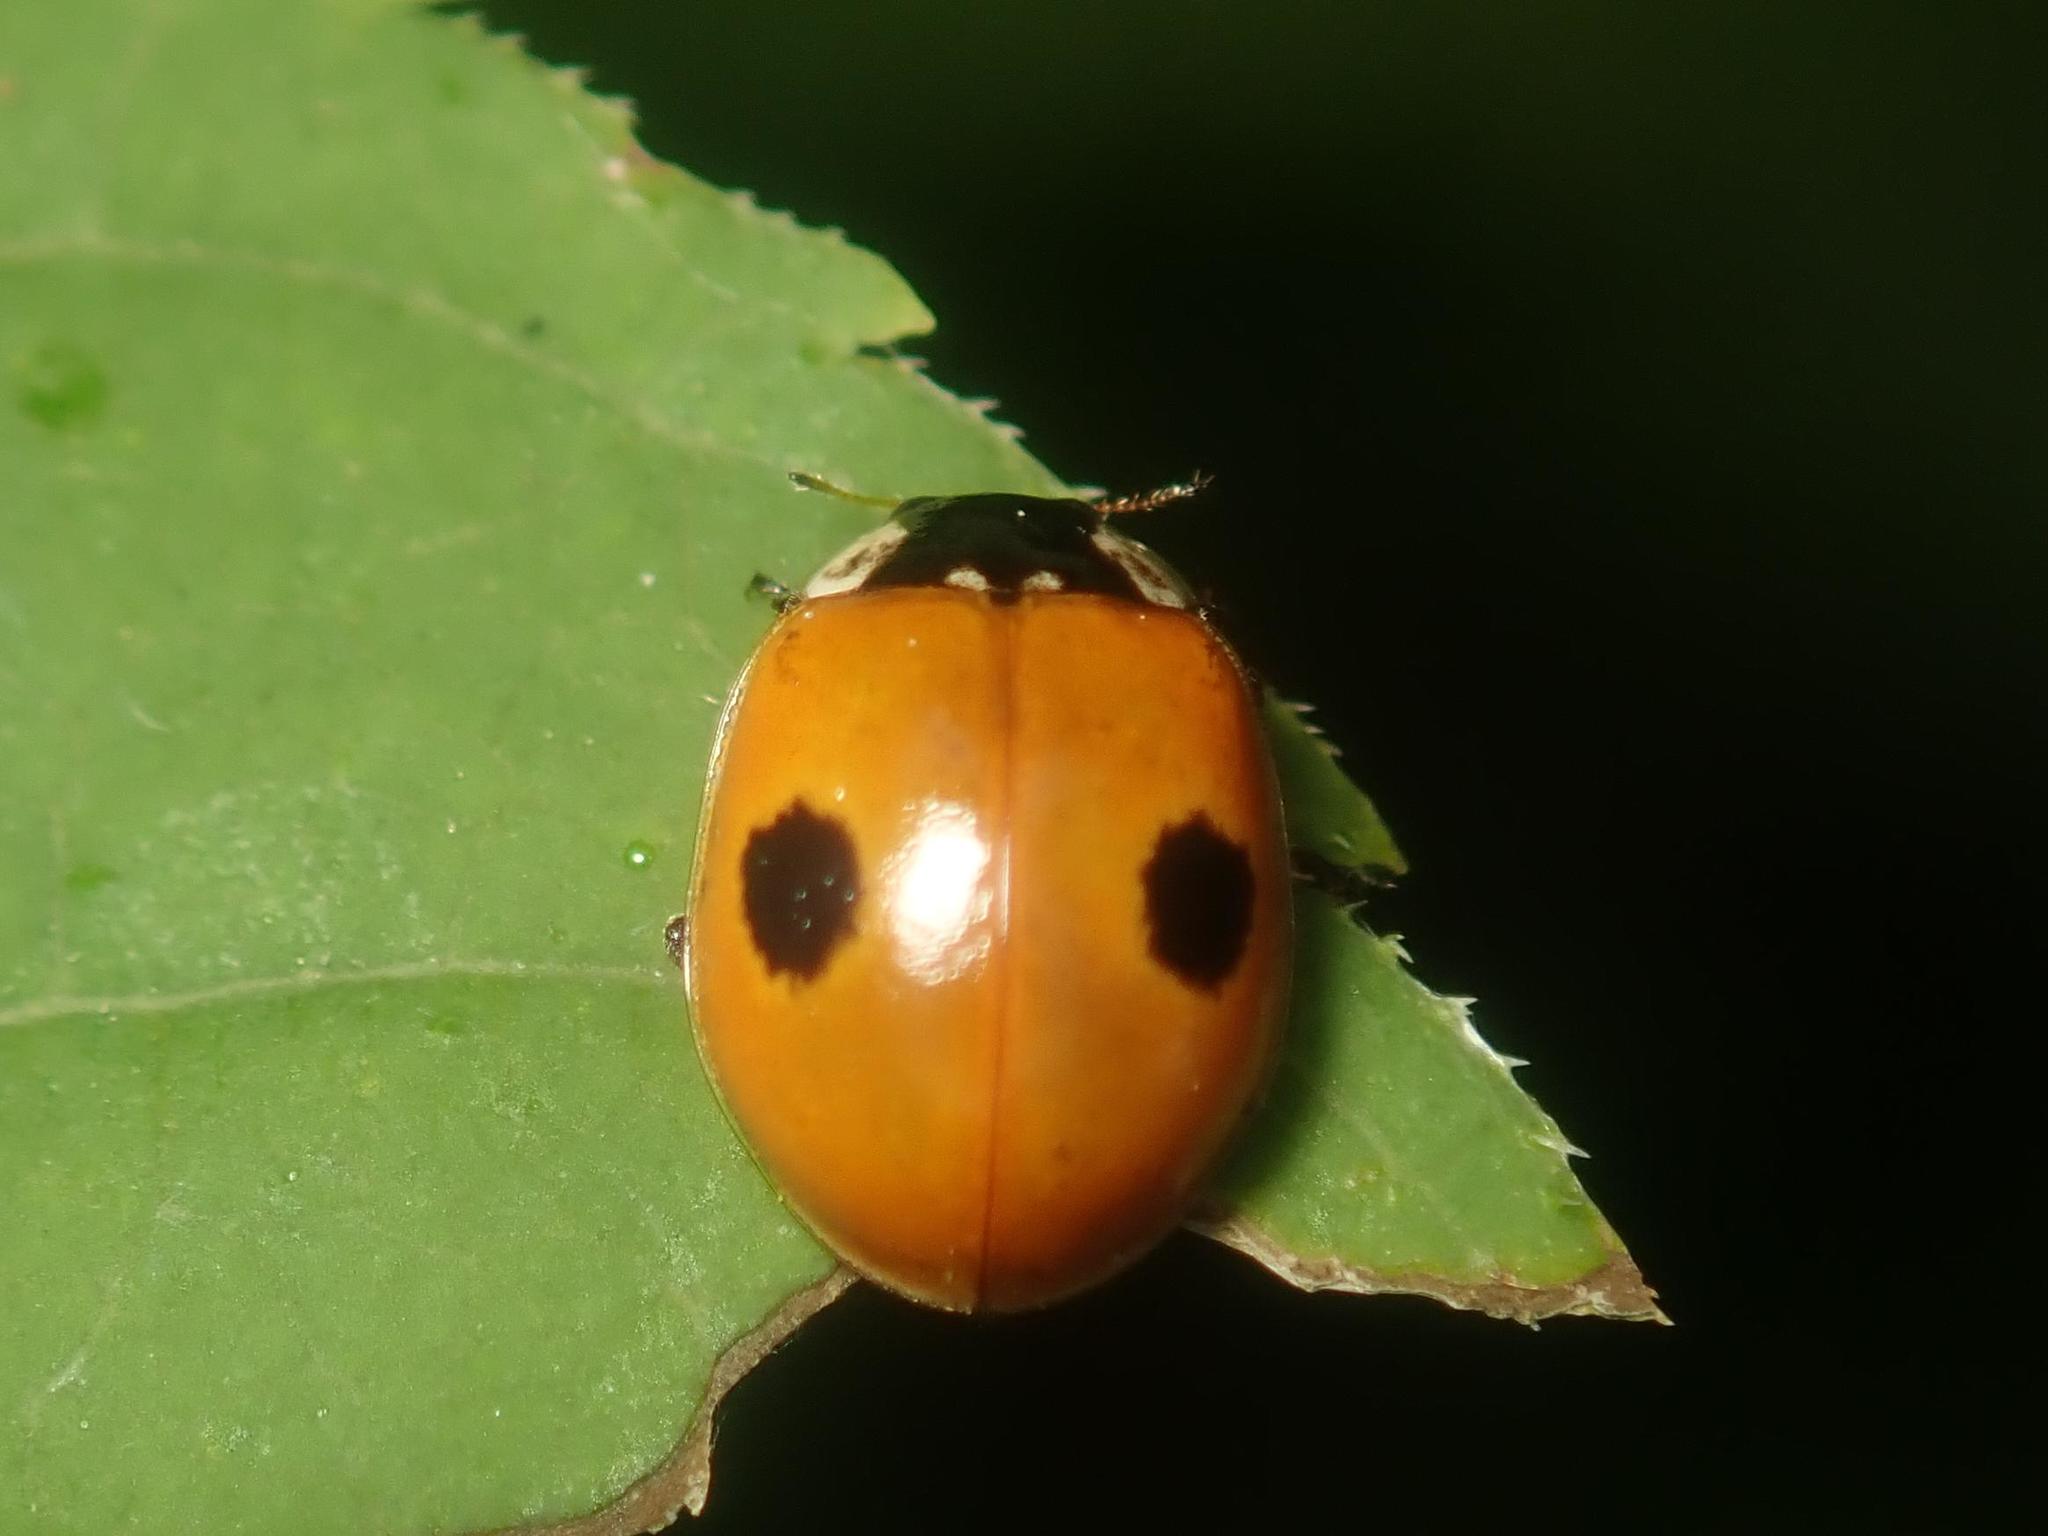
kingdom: Animalia
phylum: Arthropoda
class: Insecta
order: Coleoptera
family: Coccinellidae
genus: Adalia
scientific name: Adalia bipunctata
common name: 2-spot ladybird
